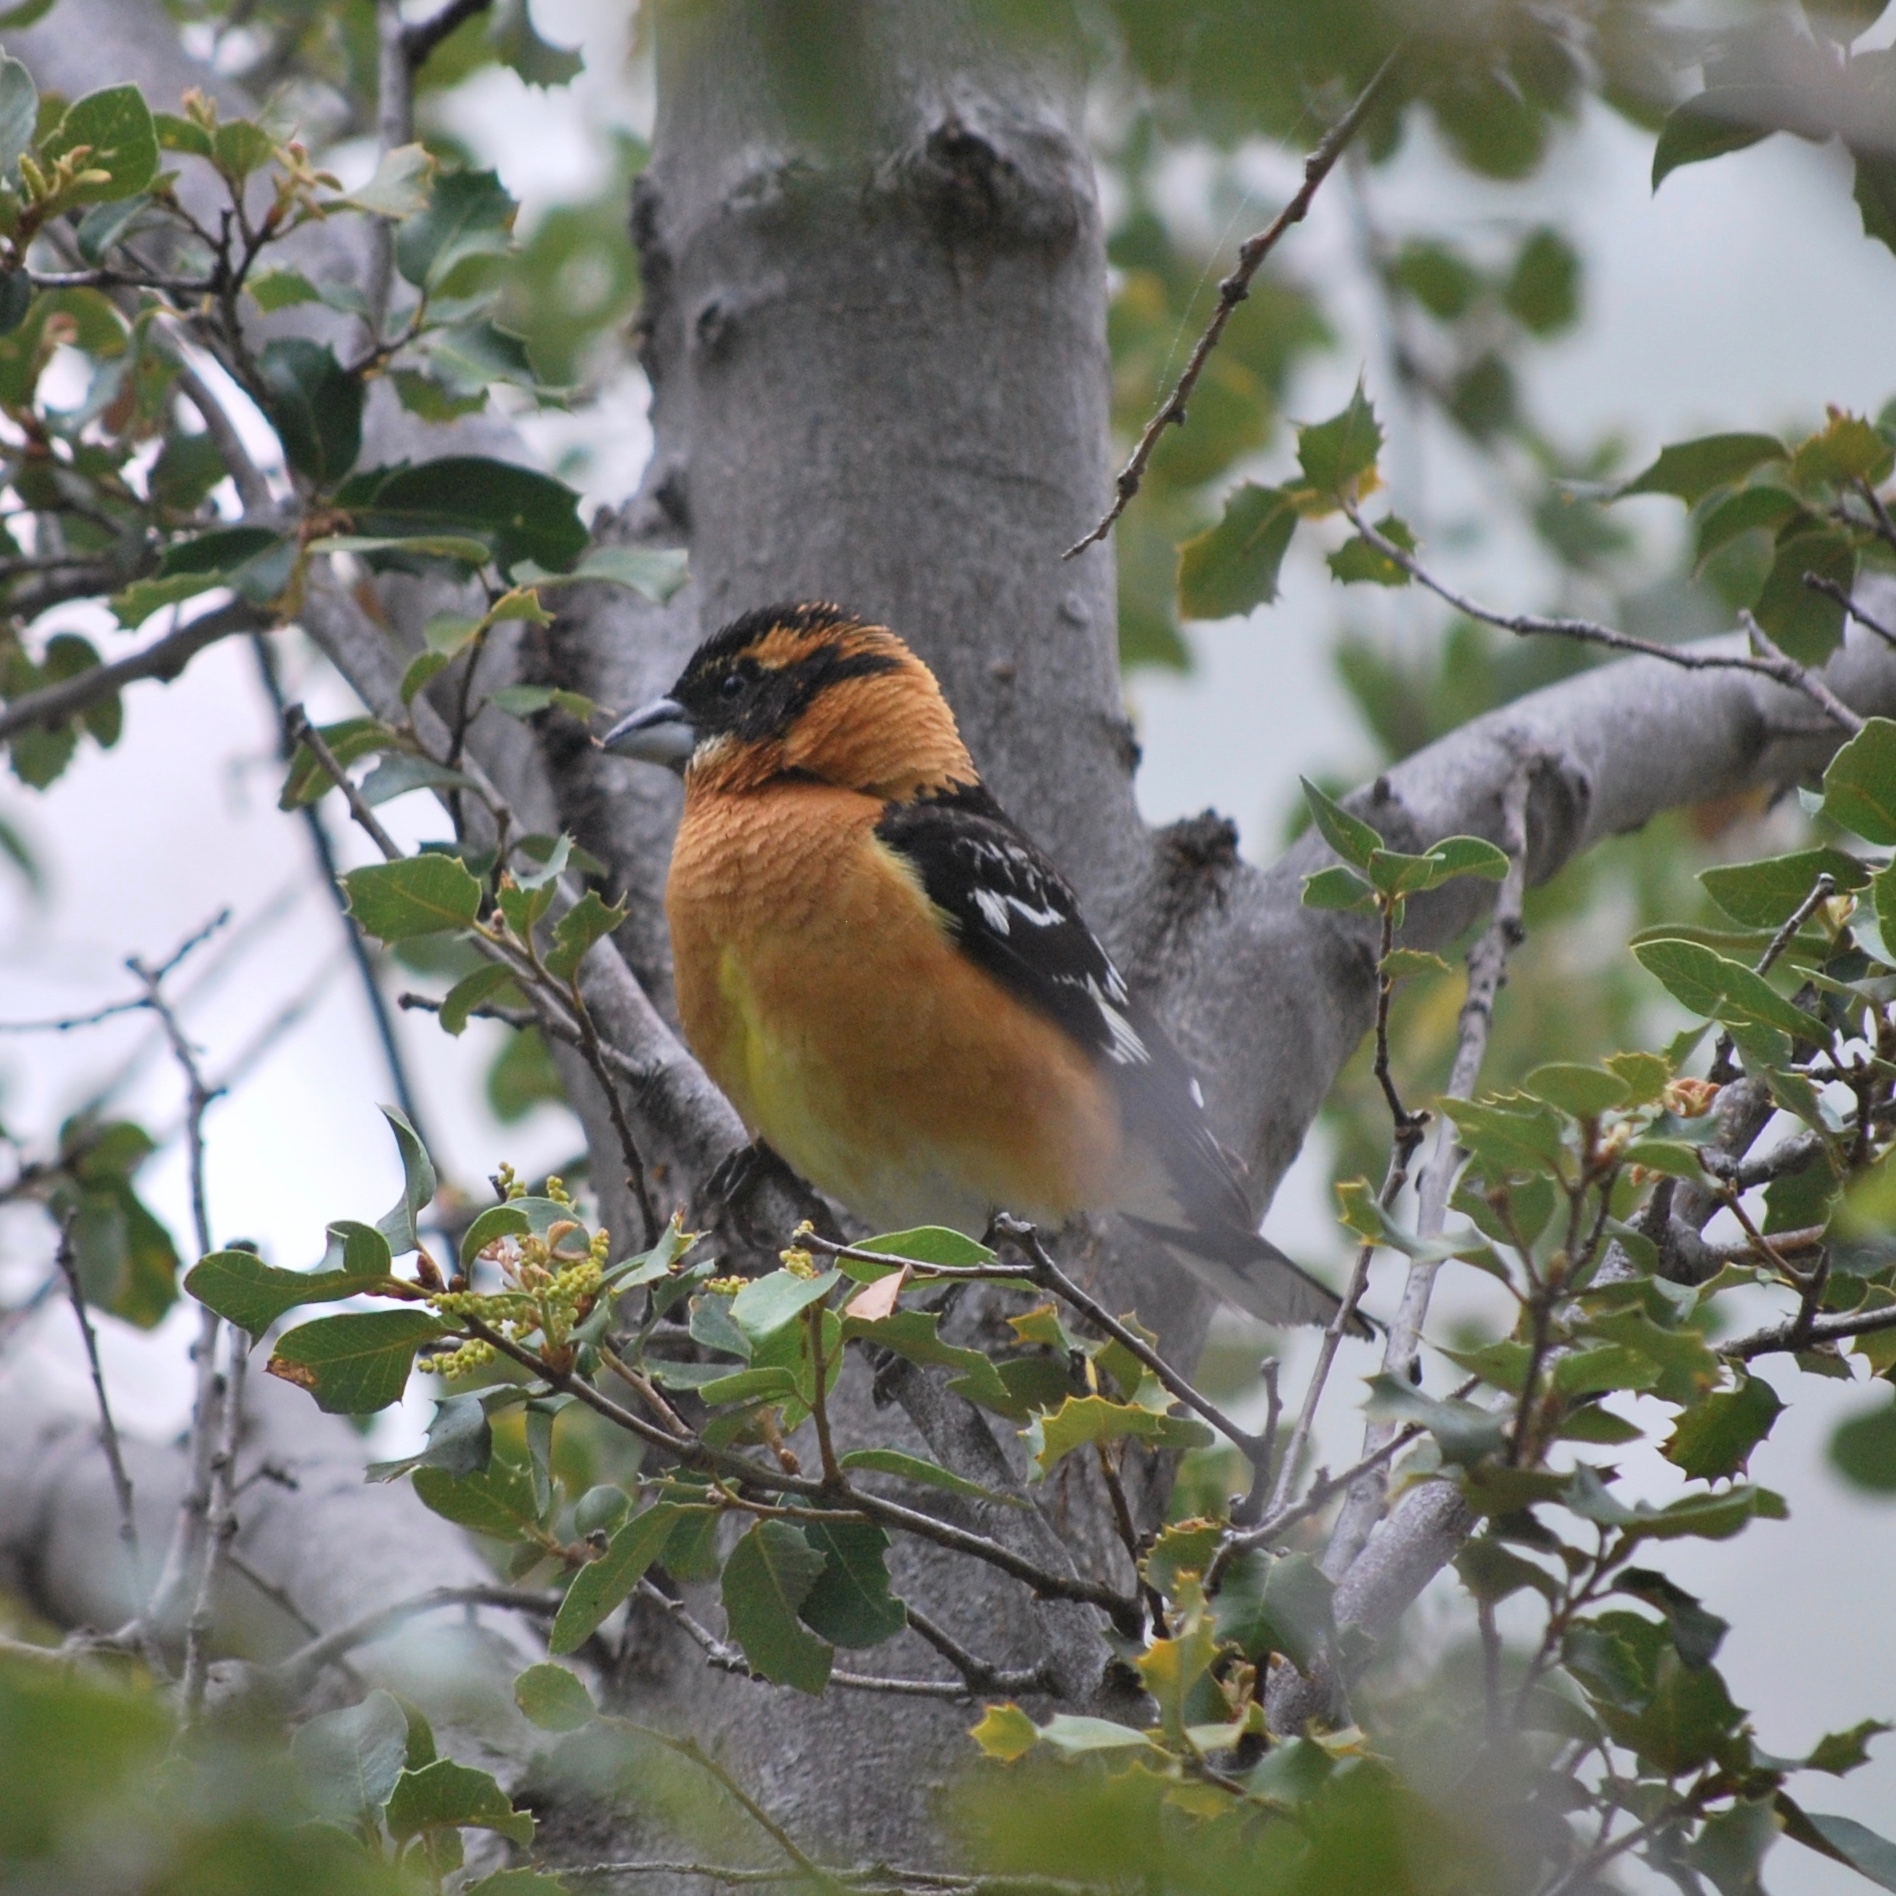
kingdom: Animalia
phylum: Chordata
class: Aves
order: Passeriformes
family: Cardinalidae
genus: Pheucticus
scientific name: Pheucticus melanocephalus
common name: Black-headed grosbeak
